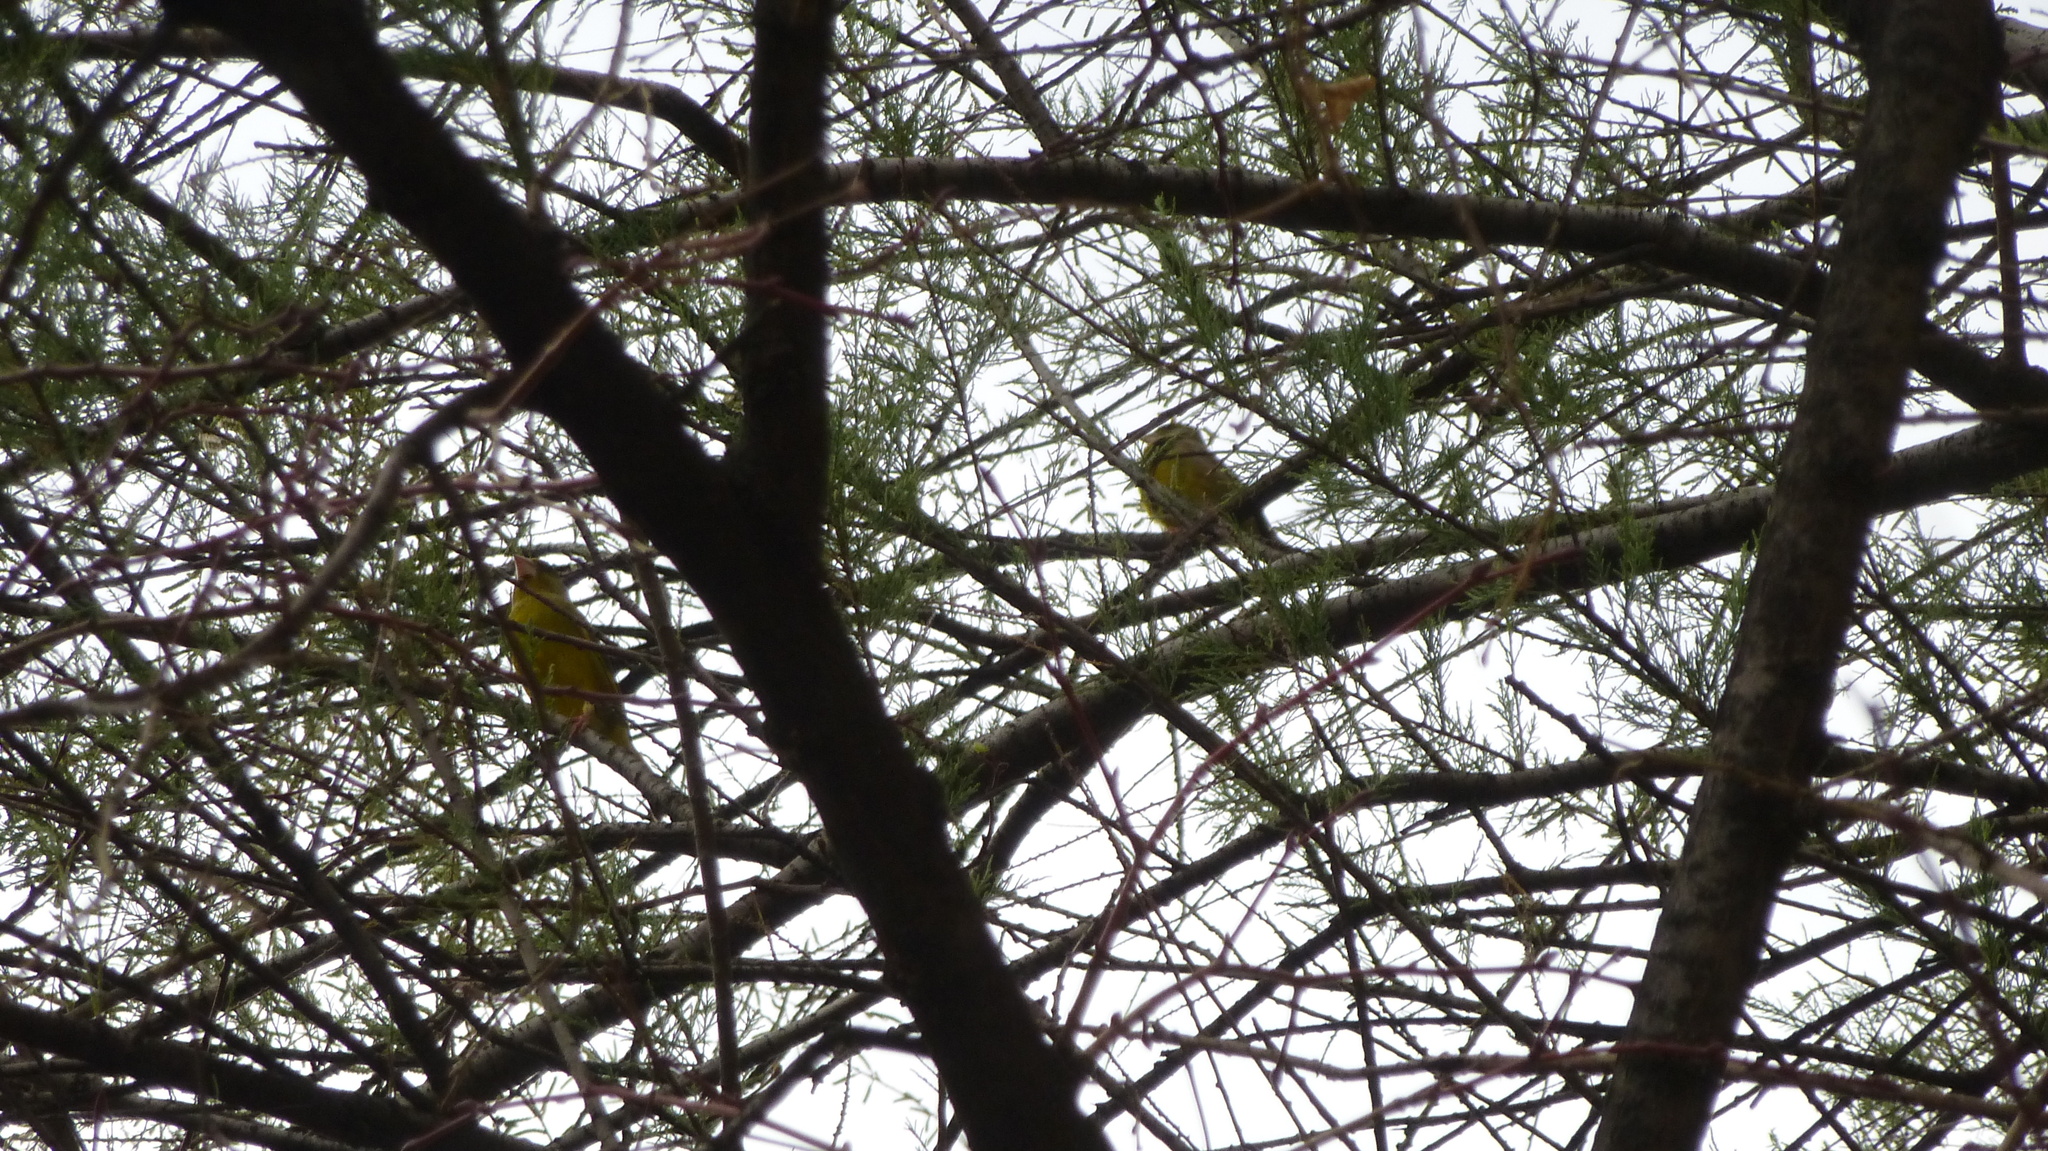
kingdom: Plantae
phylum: Tracheophyta
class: Liliopsida
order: Poales
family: Poaceae
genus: Chloris
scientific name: Chloris chloris
